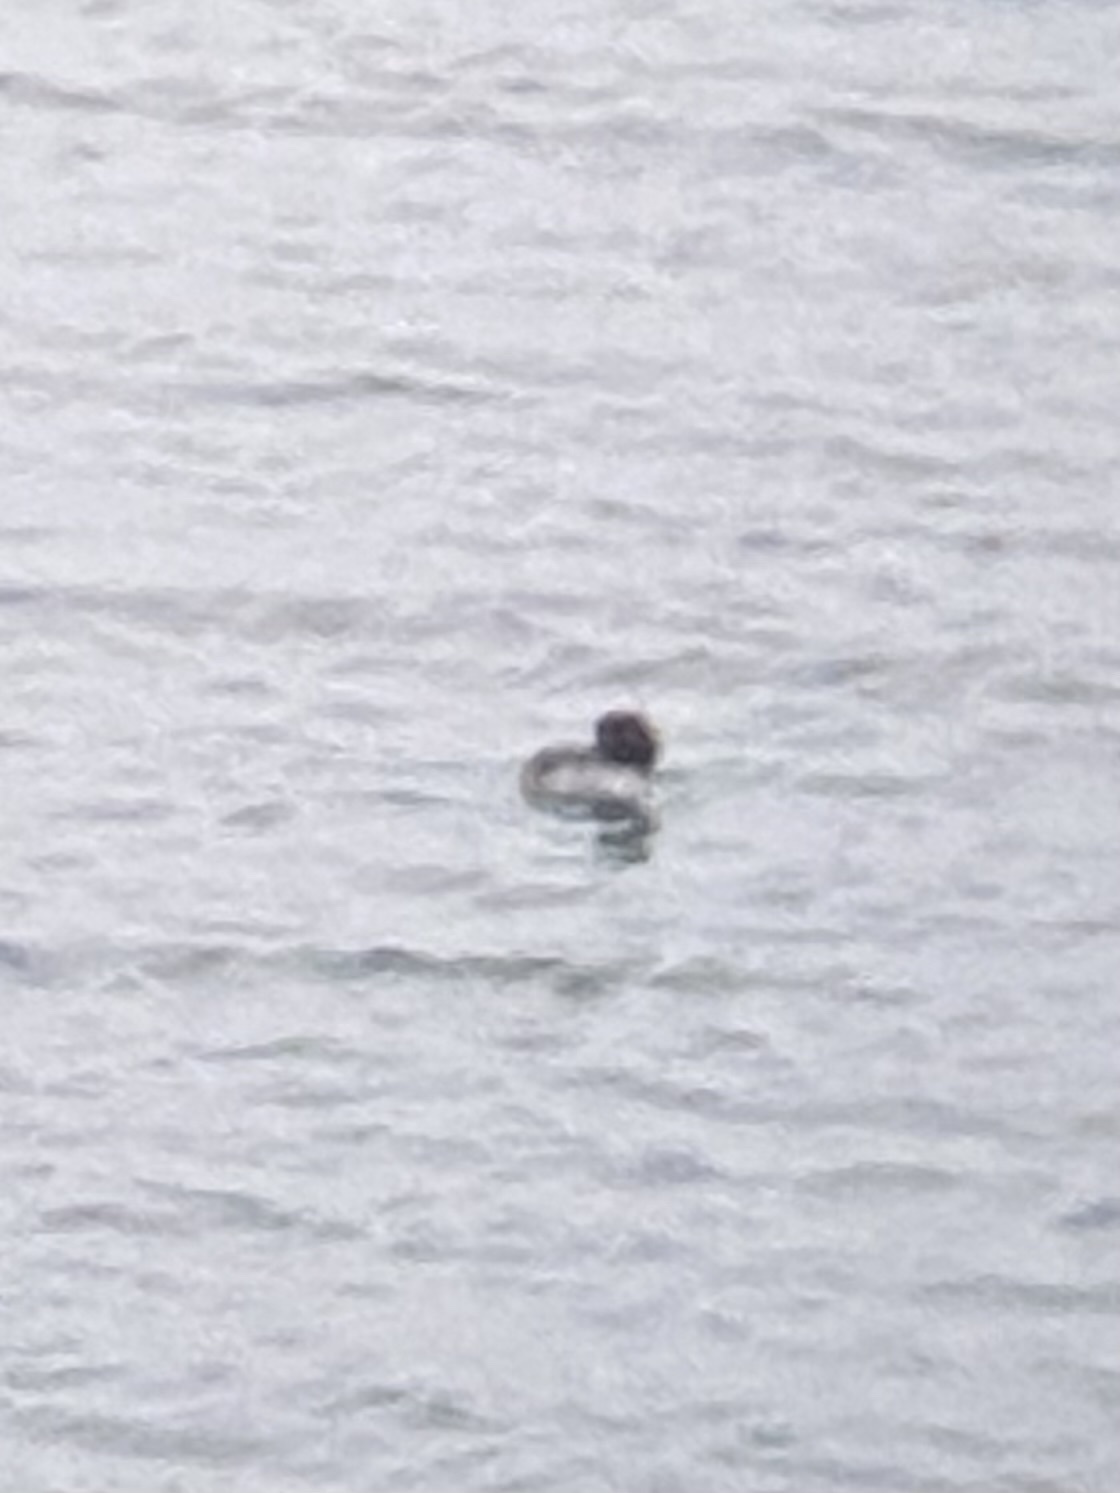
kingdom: Animalia
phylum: Chordata
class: Aves
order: Anseriformes
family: Anatidae
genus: Bucephala
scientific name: Bucephala clangula
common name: Common goldeneye
